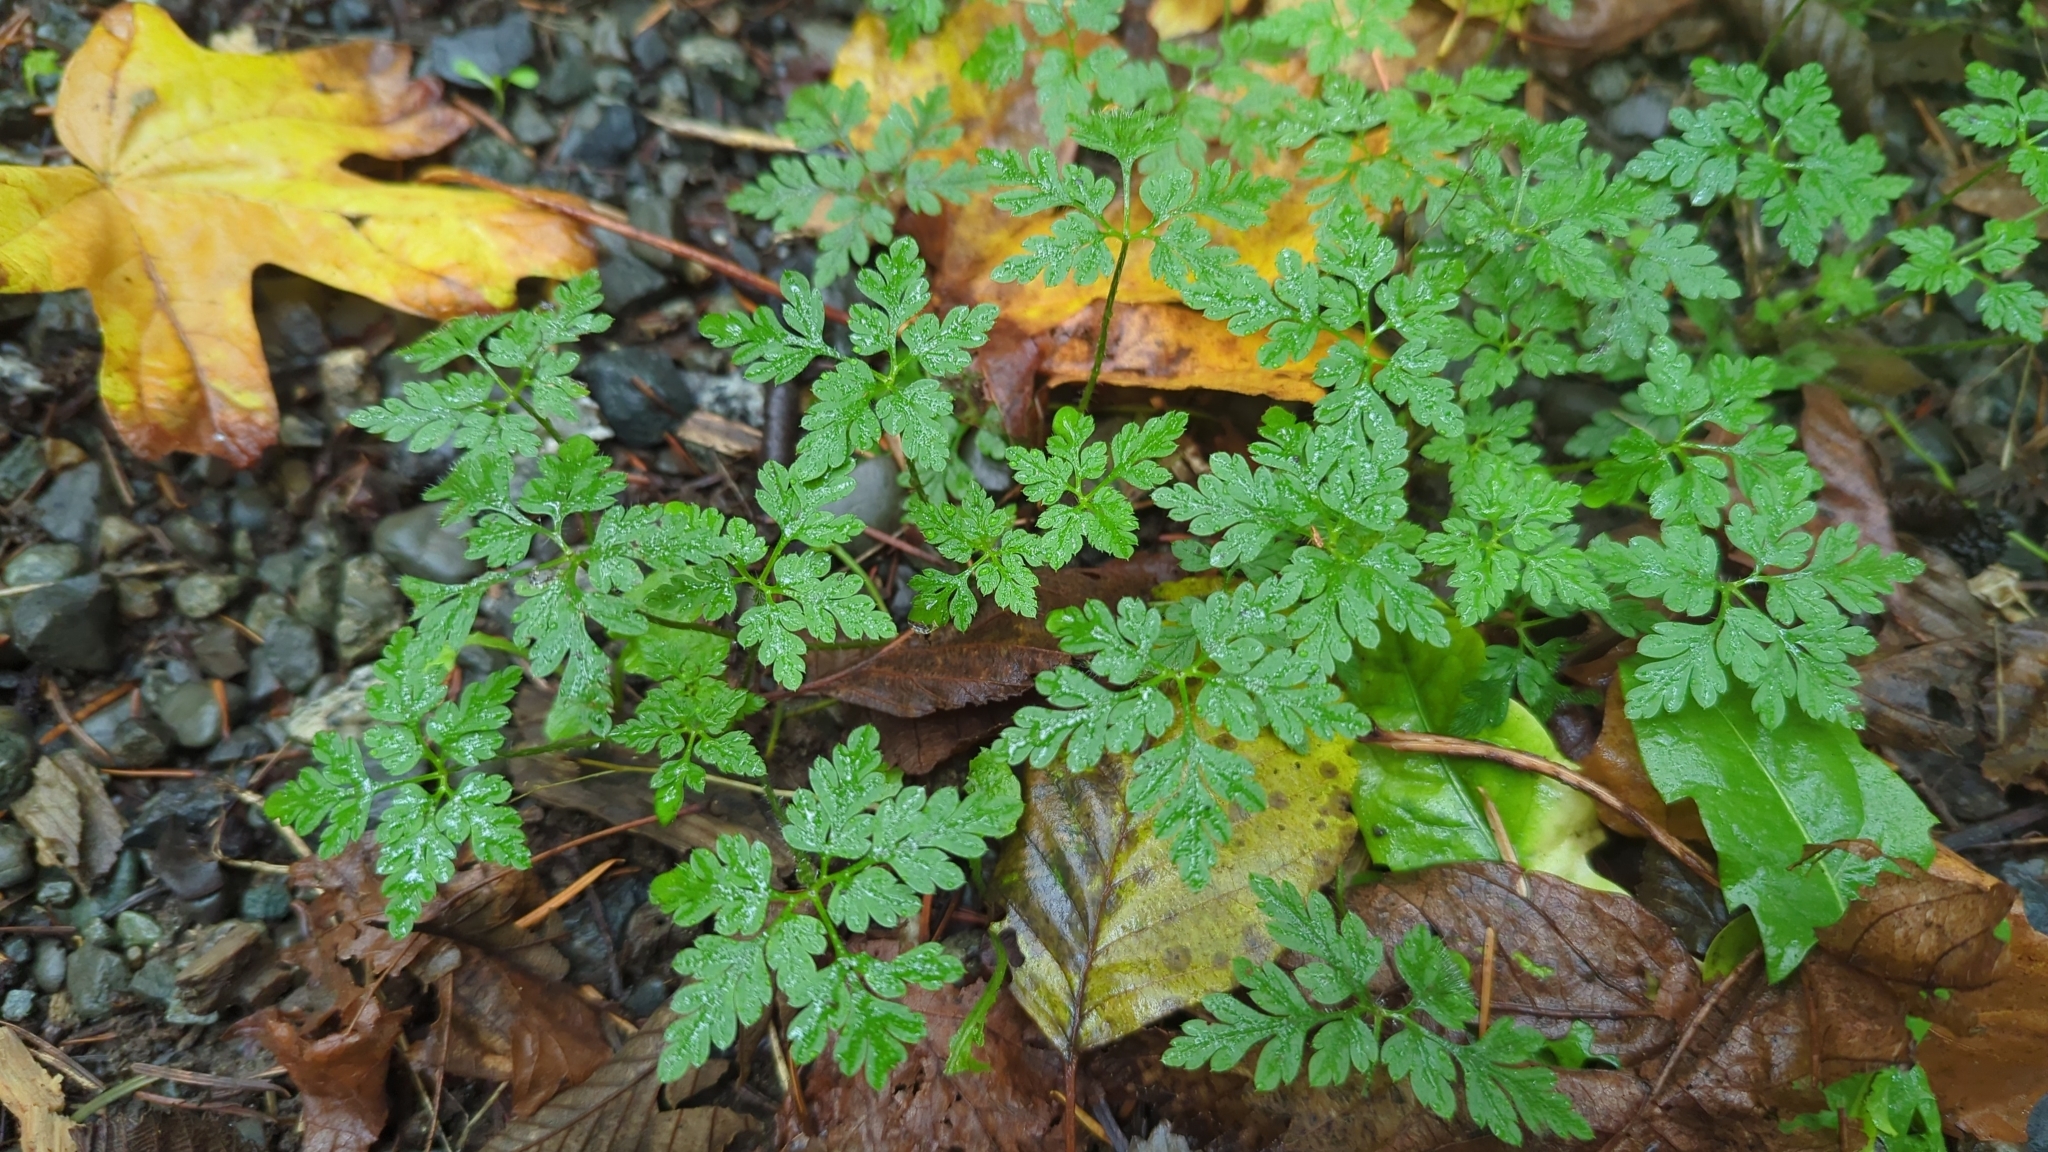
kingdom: Plantae
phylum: Tracheophyta
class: Magnoliopsida
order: Geraniales
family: Geraniaceae
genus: Geranium
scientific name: Geranium robertianum
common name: Herb-robert
